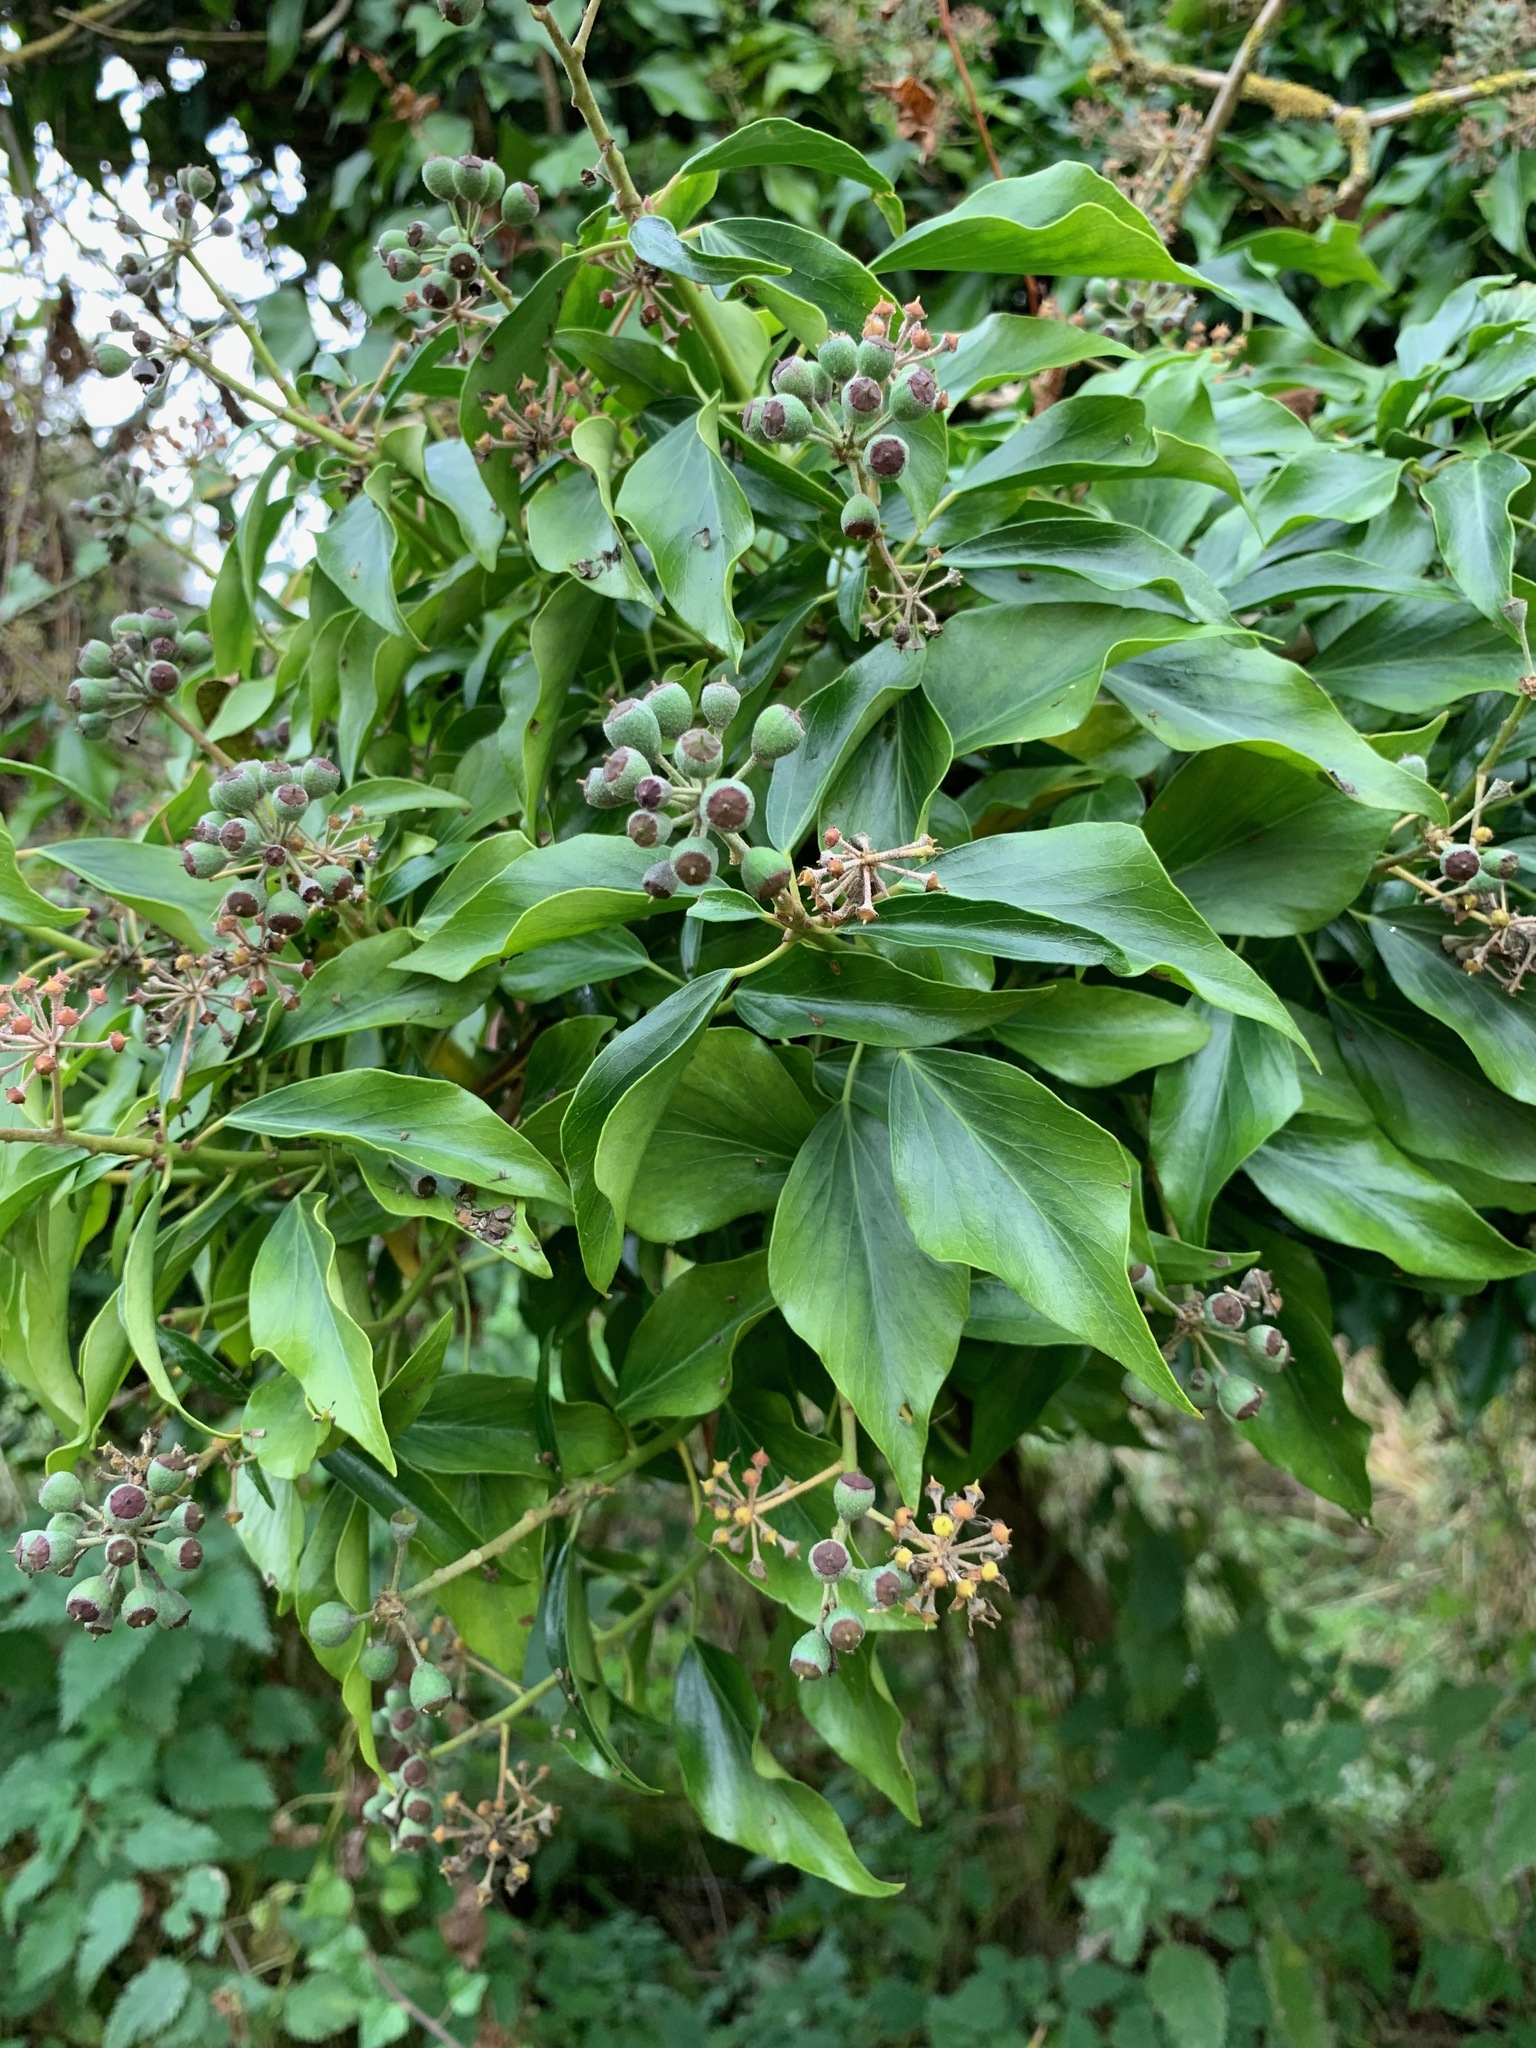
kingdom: Plantae
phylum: Tracheophyta
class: Magnoliopsida
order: Apiales
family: Araliaceae
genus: Hedera
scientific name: Hedera helix
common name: Ivy
